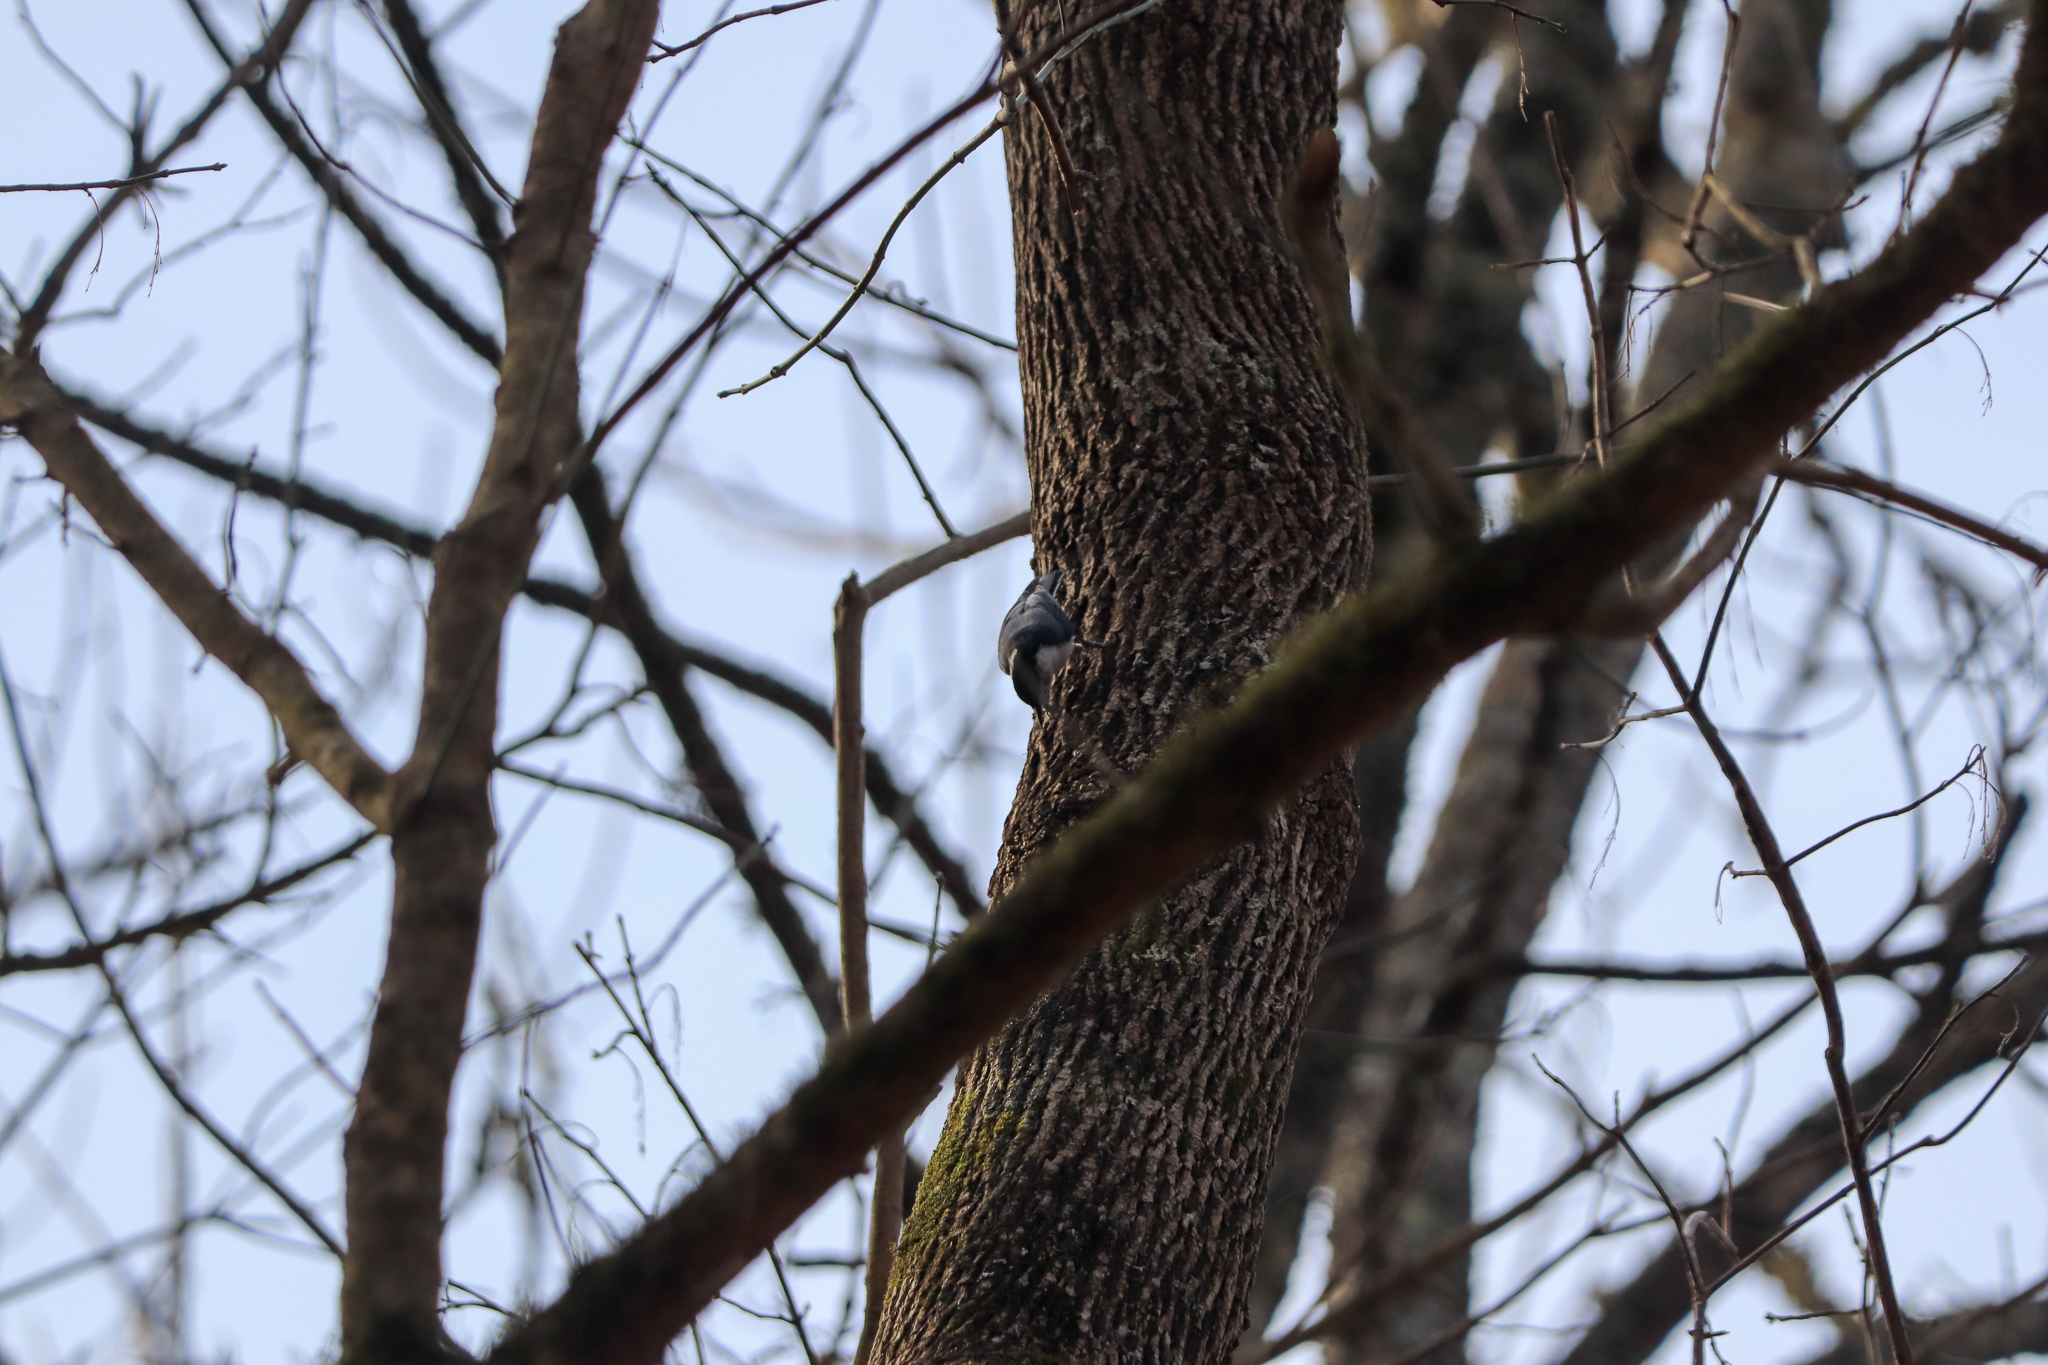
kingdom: Animalia
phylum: Chordata
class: Aves
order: Passeriformes
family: Sittidae
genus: Sitta
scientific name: Sitta carolinensis
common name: White-breasted nuthatch
